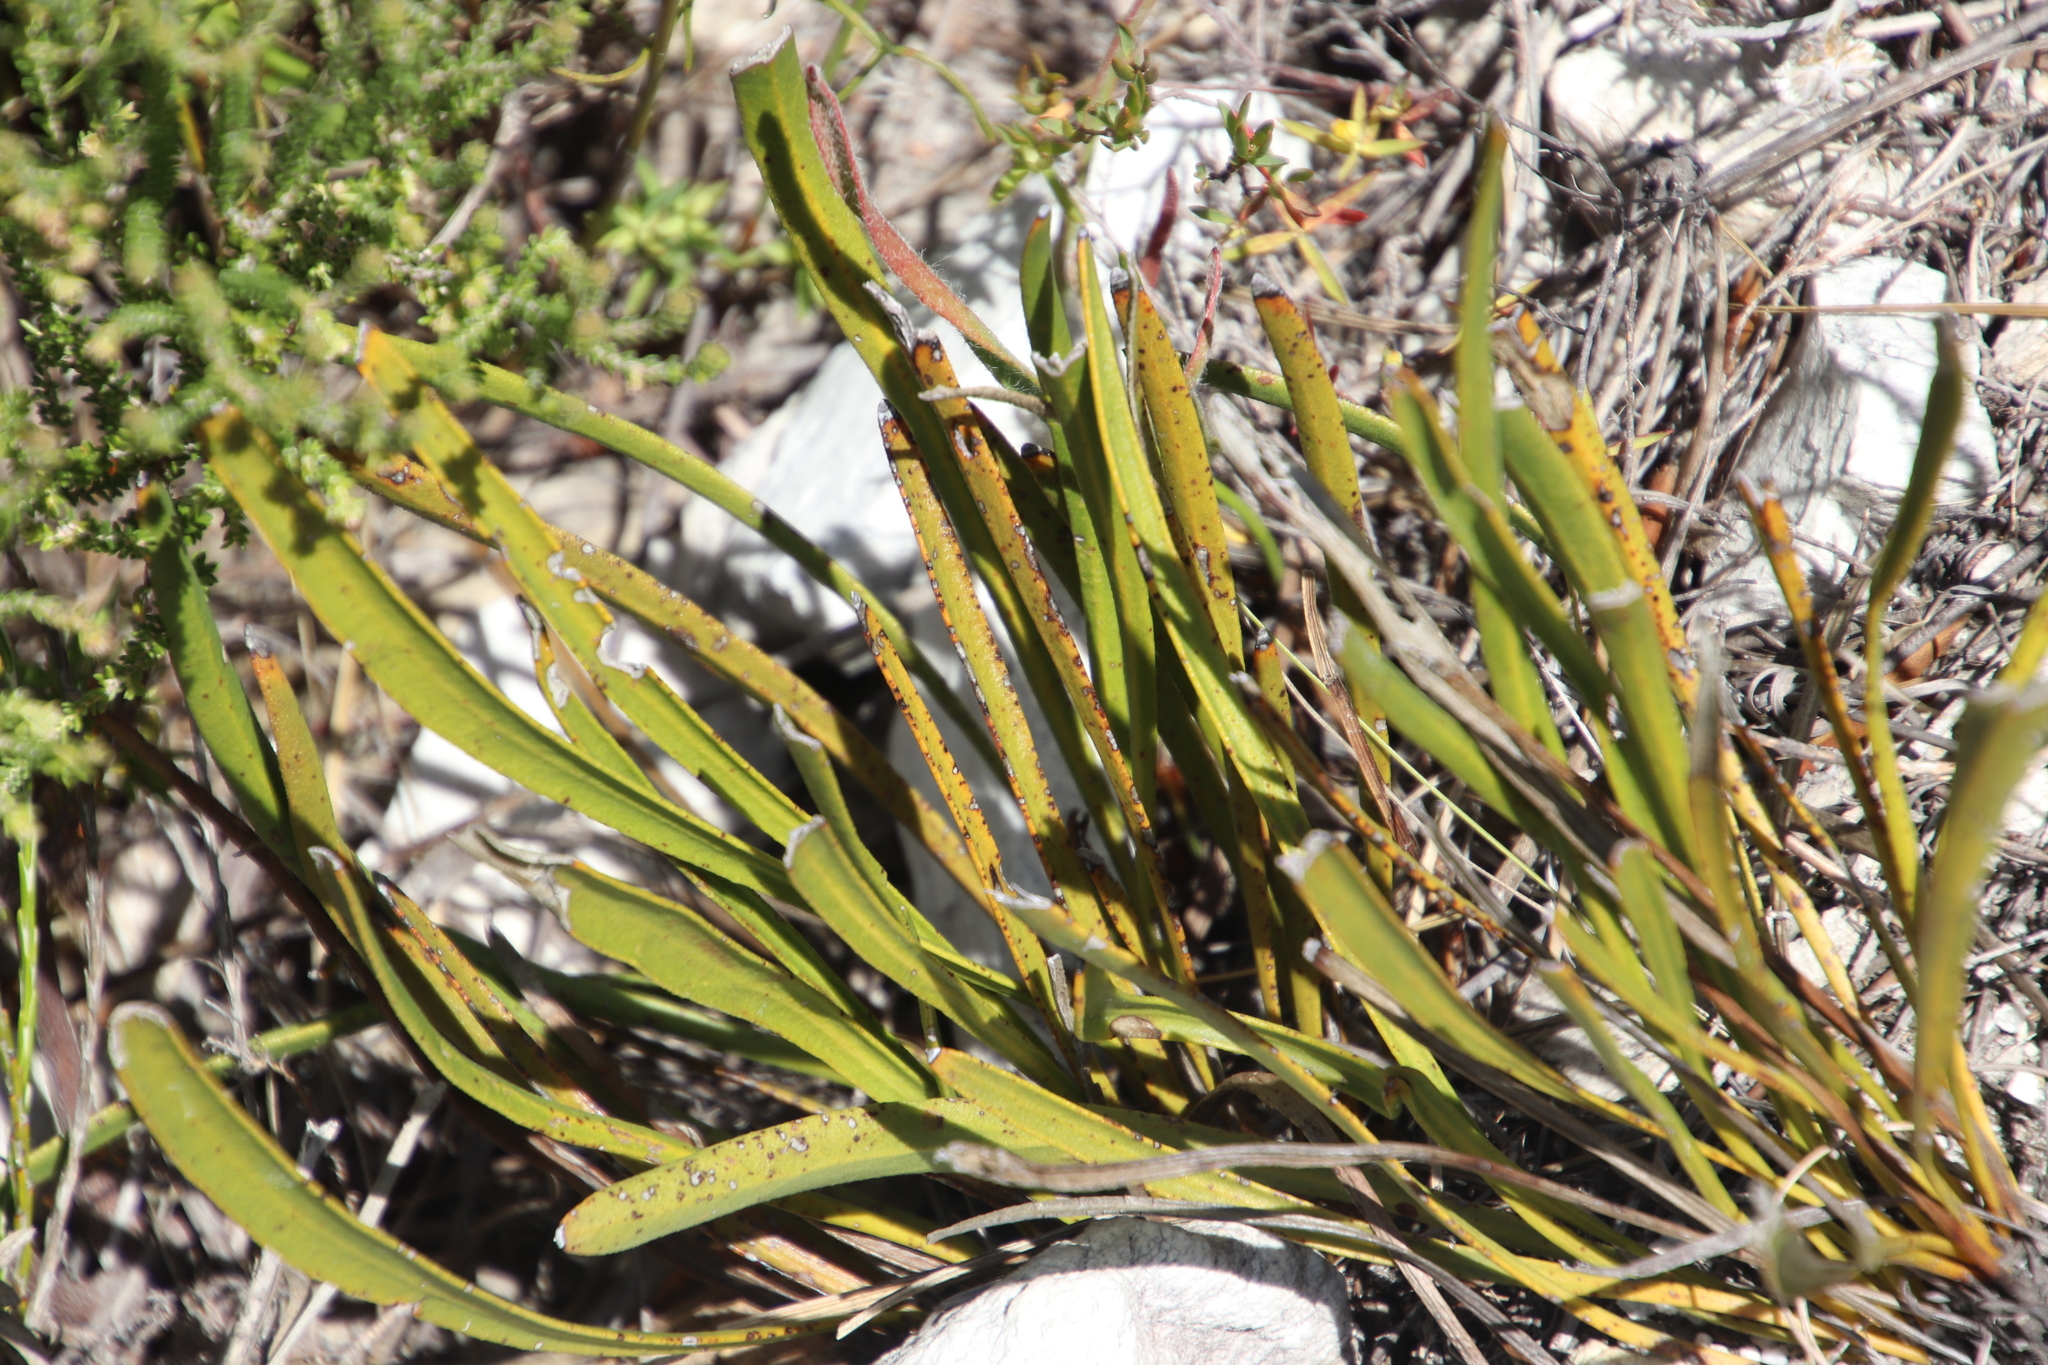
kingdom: Plantae
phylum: Tracheophyta
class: Magnoliopsida
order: Proteales
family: Proteaceae
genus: Protea
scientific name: Protea scabra
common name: Sandpaper-leaf sugarbush
